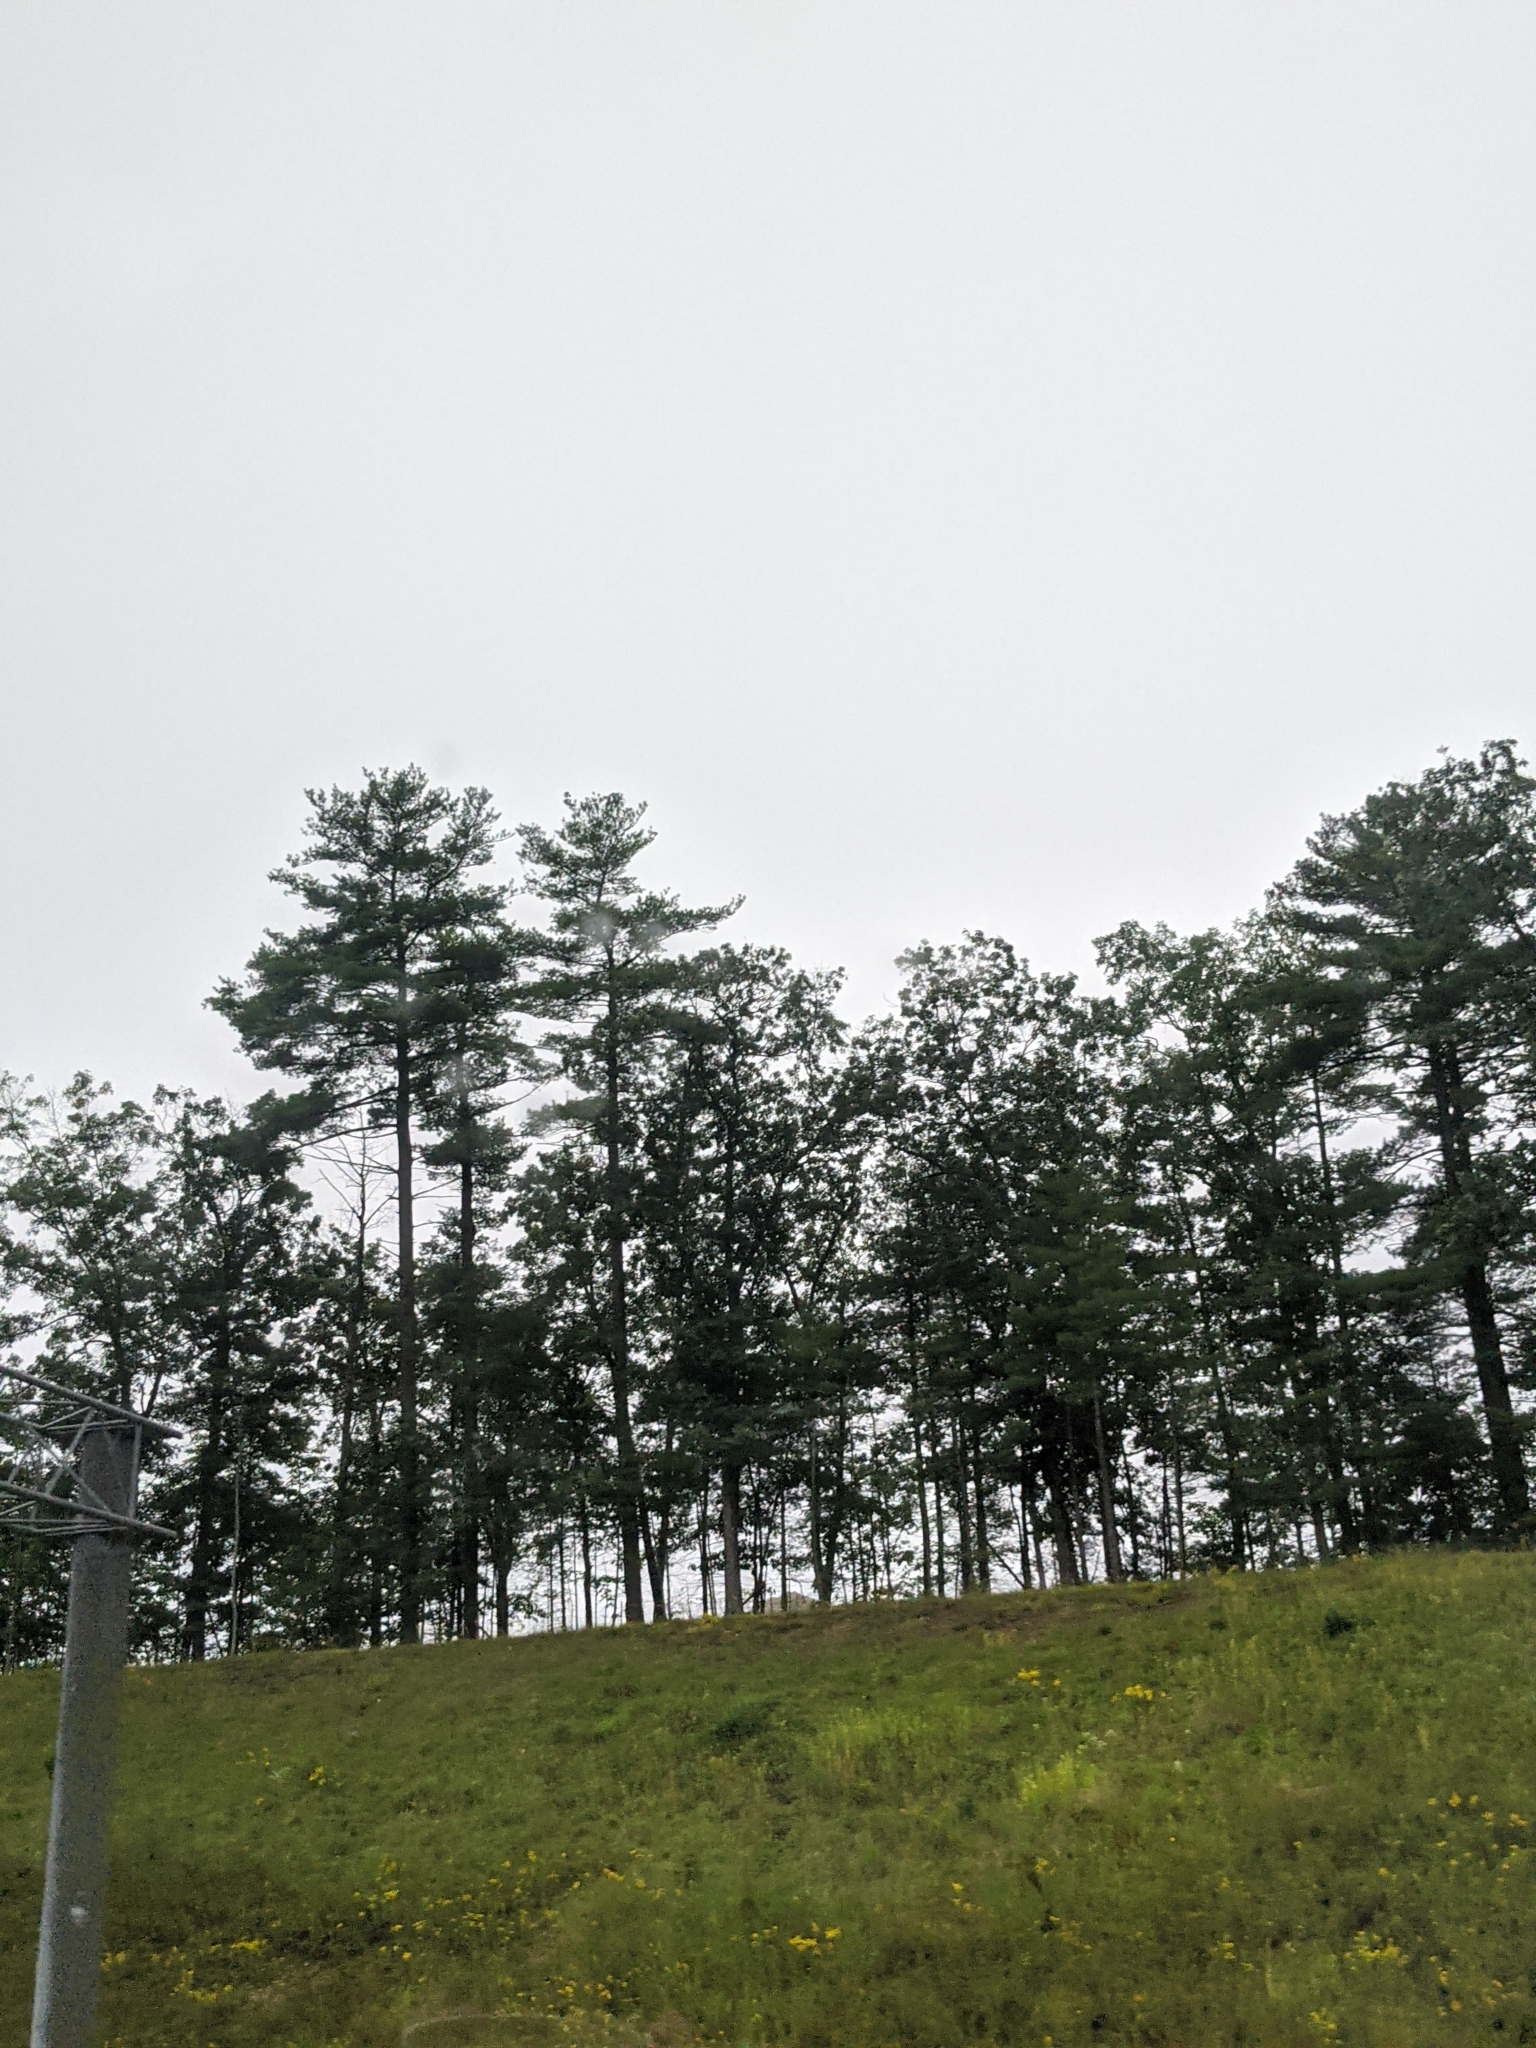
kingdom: Plantae
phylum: Tracheophyta
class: Pinopsida
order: Pinales
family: Pinaceae
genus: Pinus
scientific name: Pinus strobus
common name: Weymouth pine
